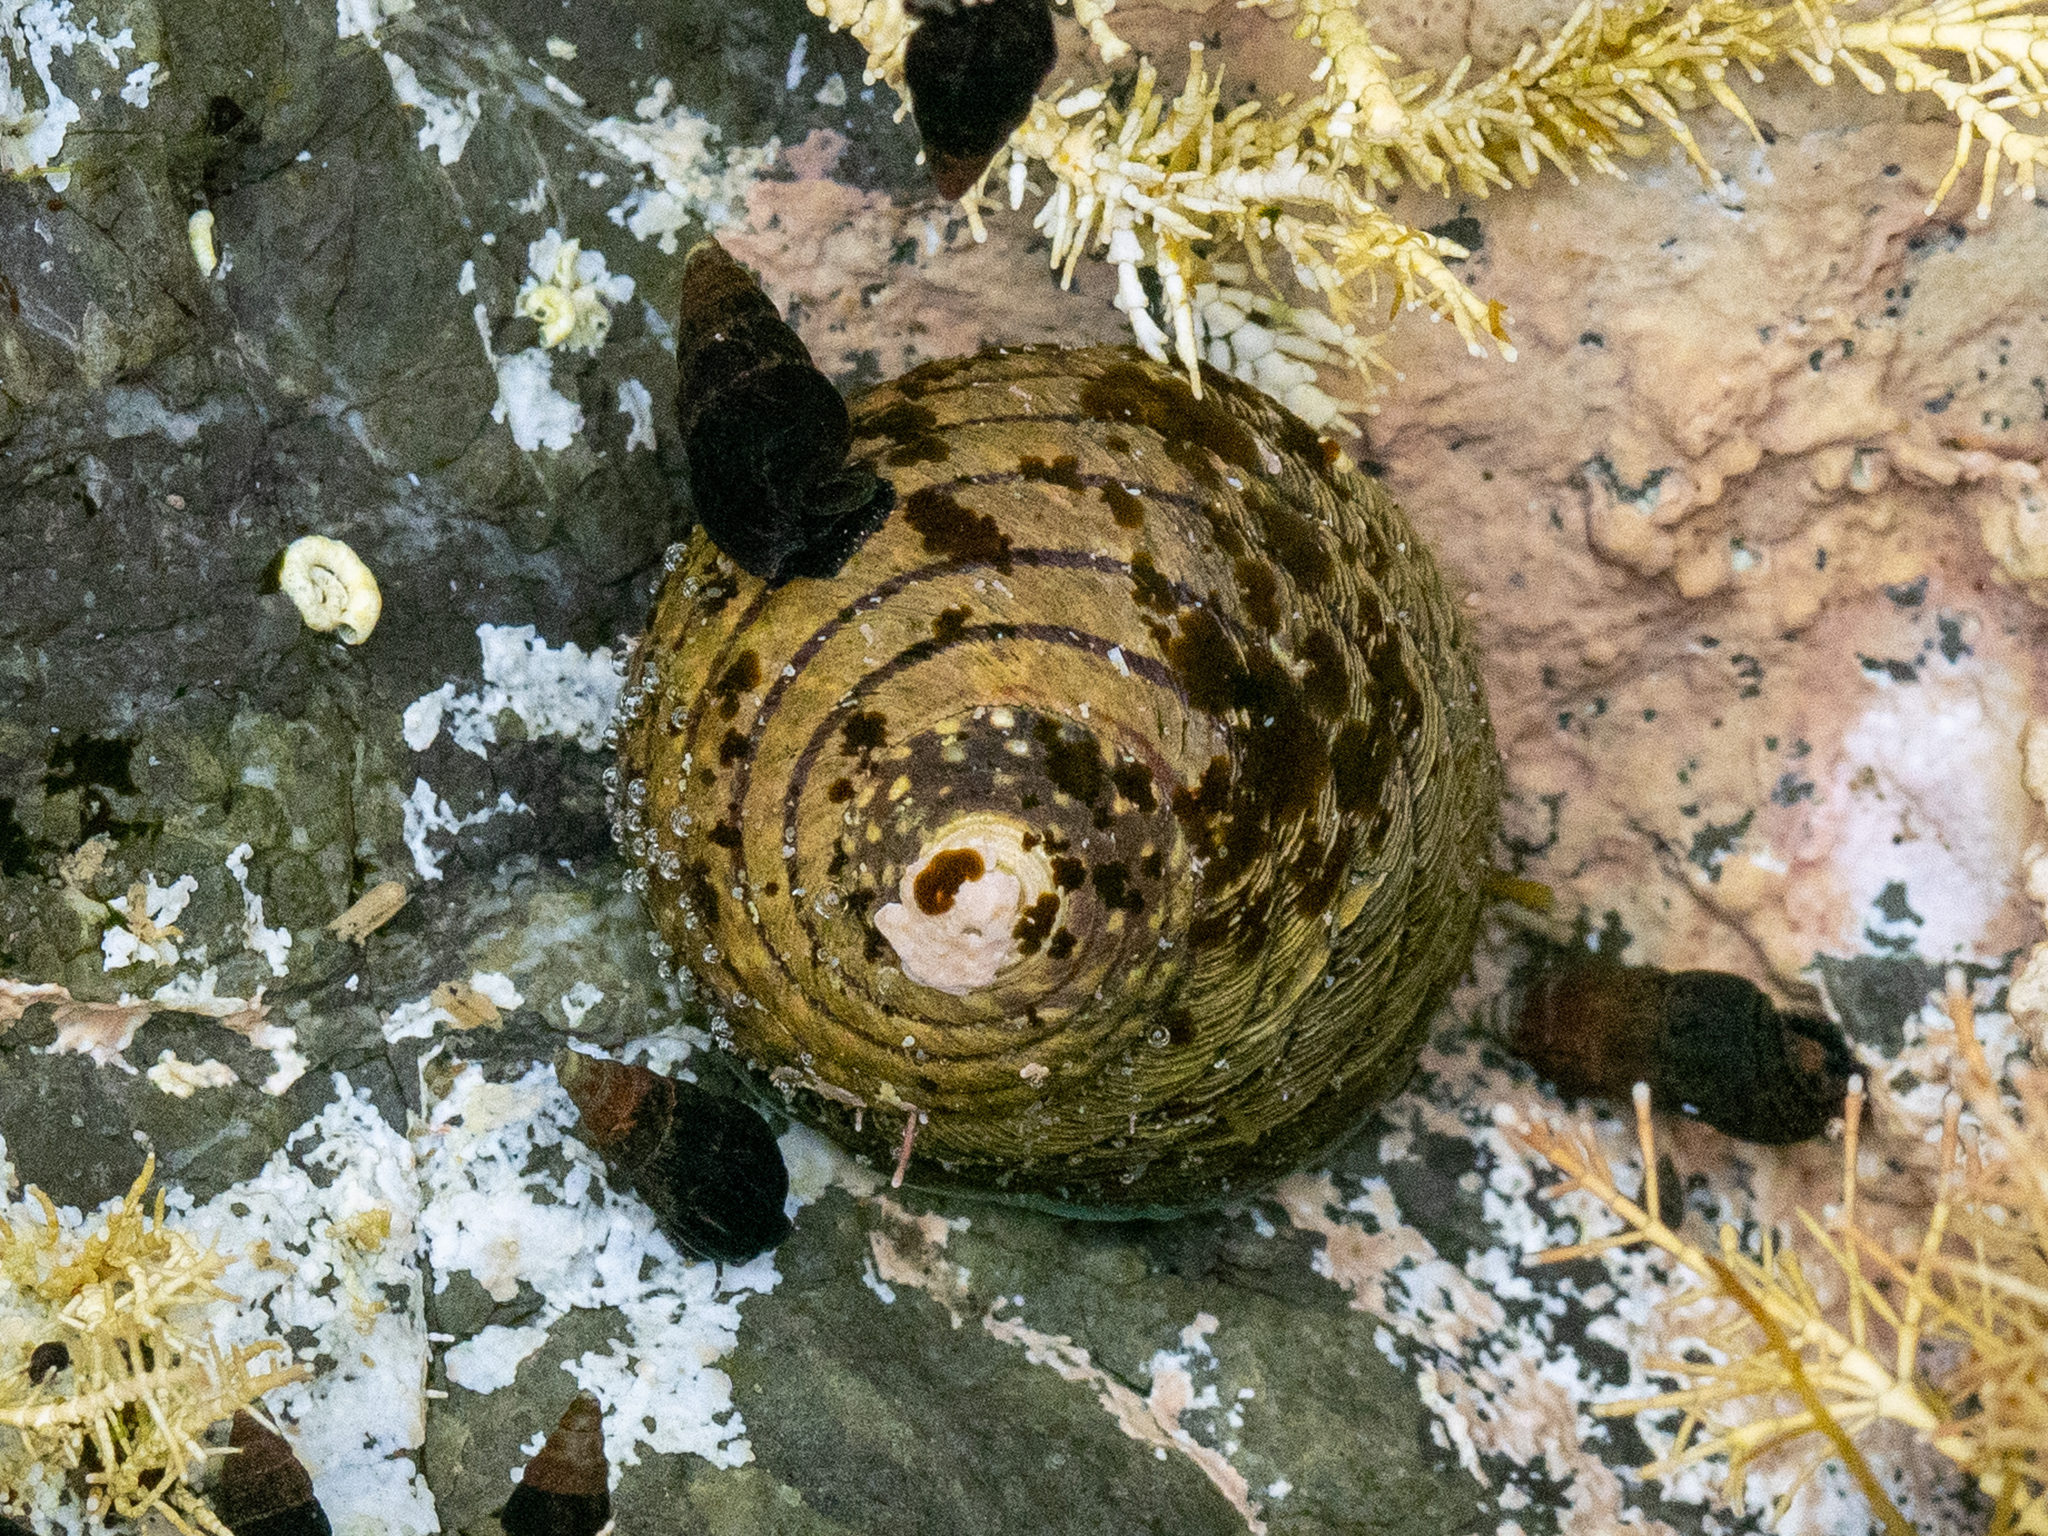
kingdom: Animalia
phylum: Mollusca
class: Gastropoda
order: Trochida
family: Trochidae
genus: Diloma
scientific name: Diloma aethiops
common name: Scorched monodont
